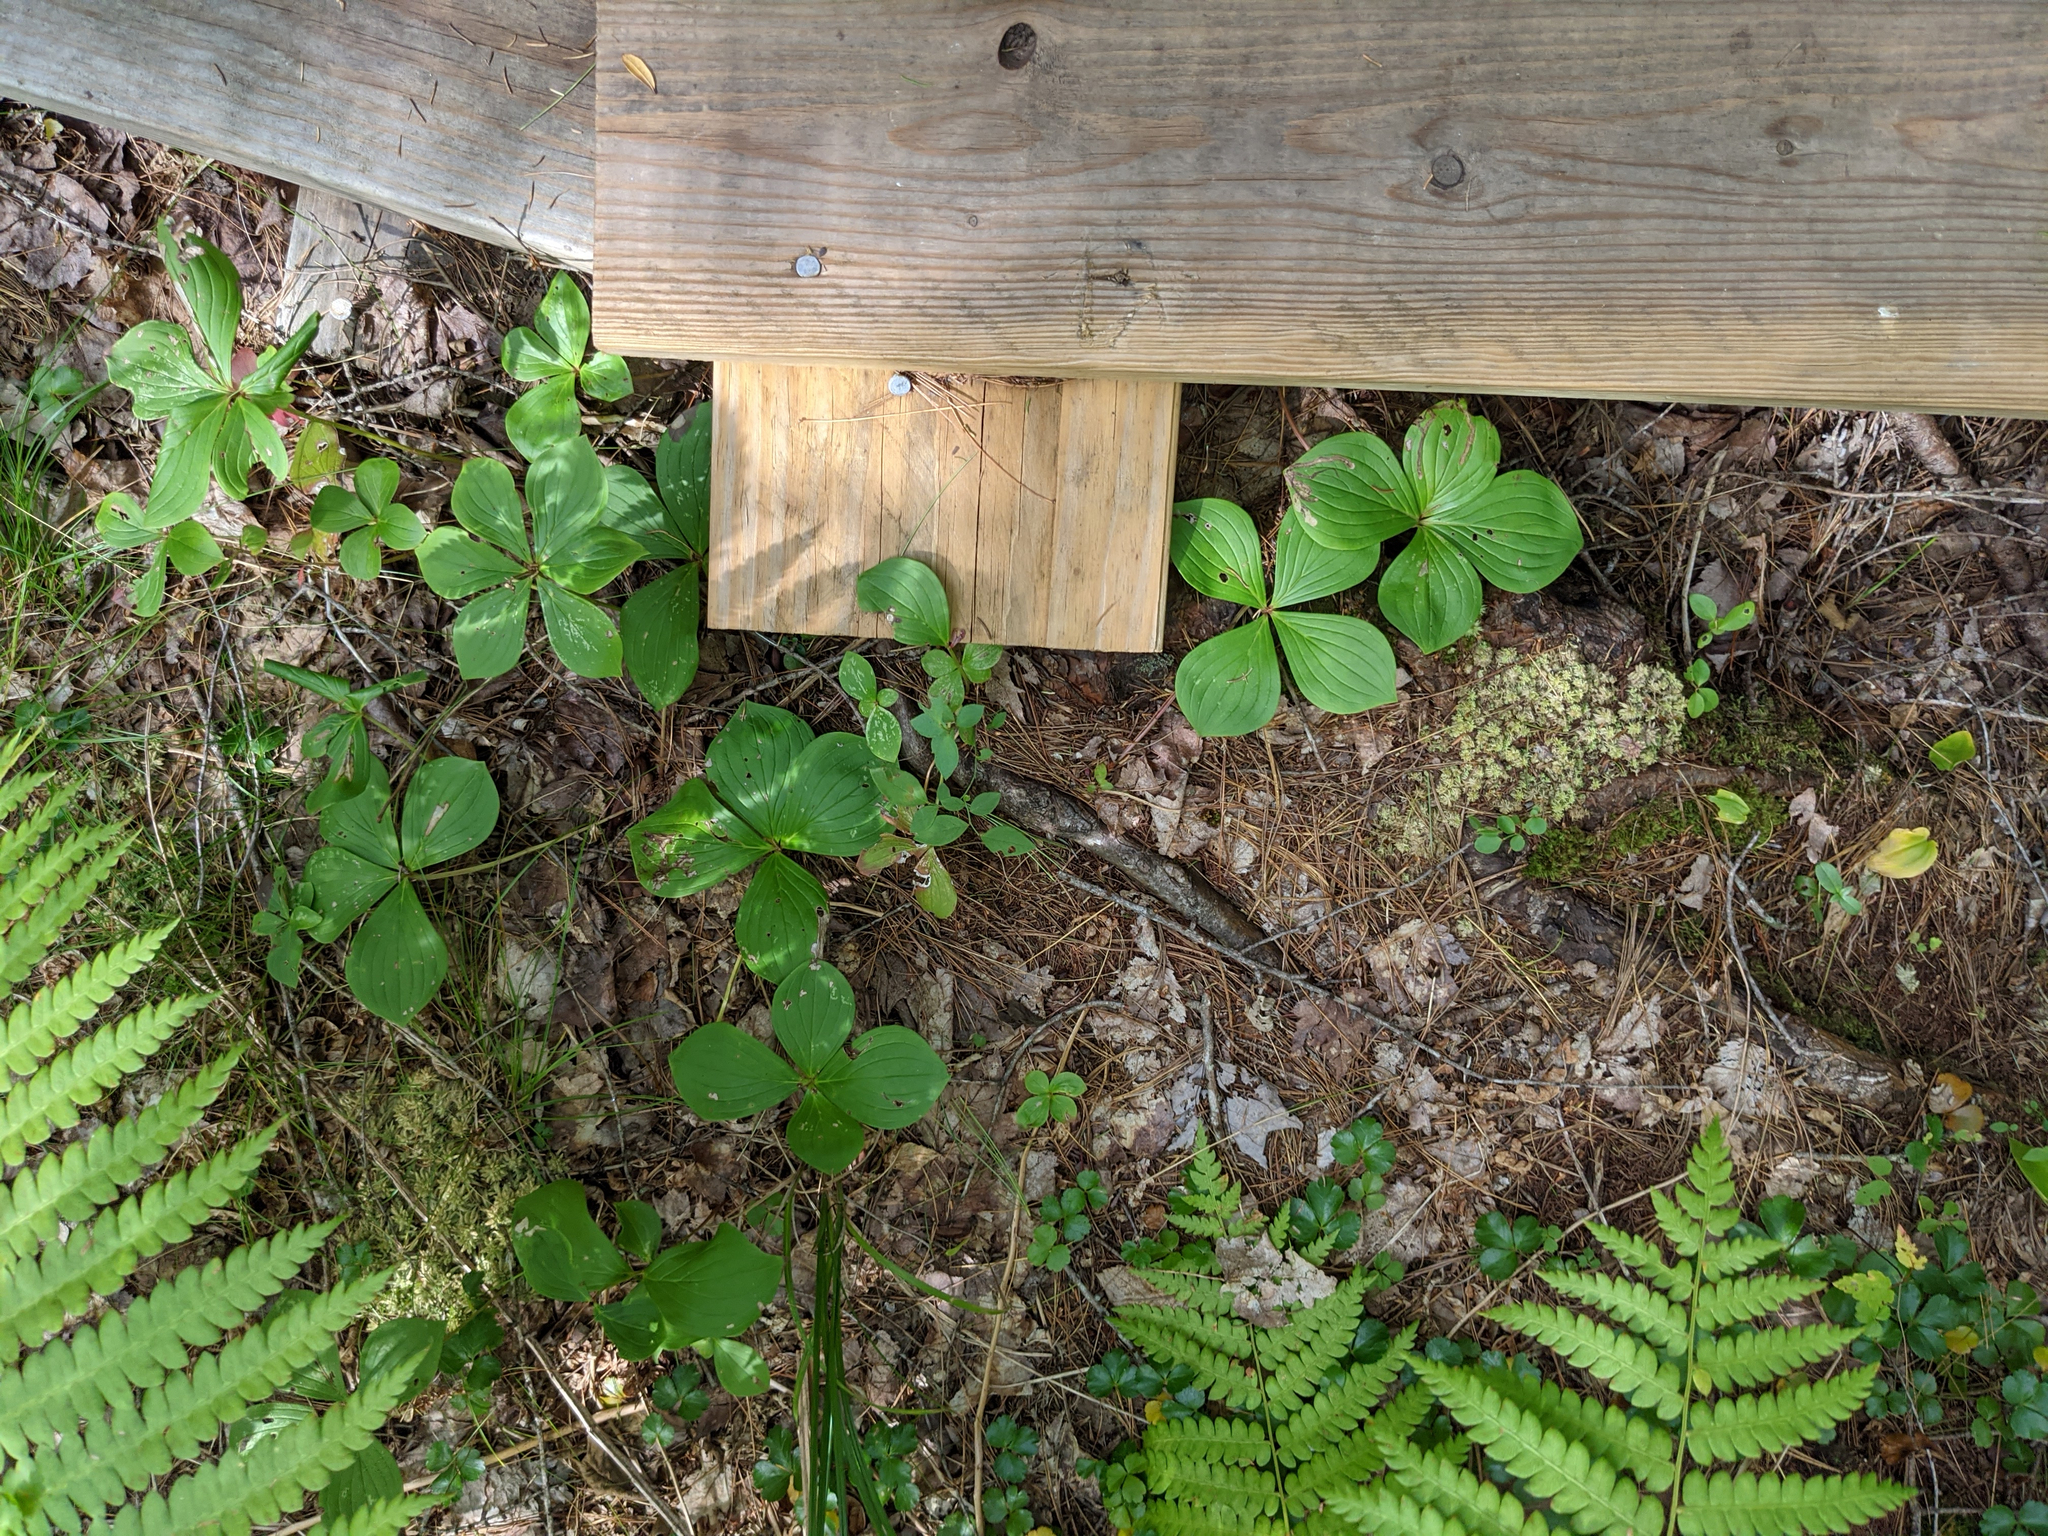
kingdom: Plantae
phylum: Tracheophyta
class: Magnoliopsida
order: Cornales
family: Cornaceae
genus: Cornus
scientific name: Cornus canadensis
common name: Creeping dogwood
